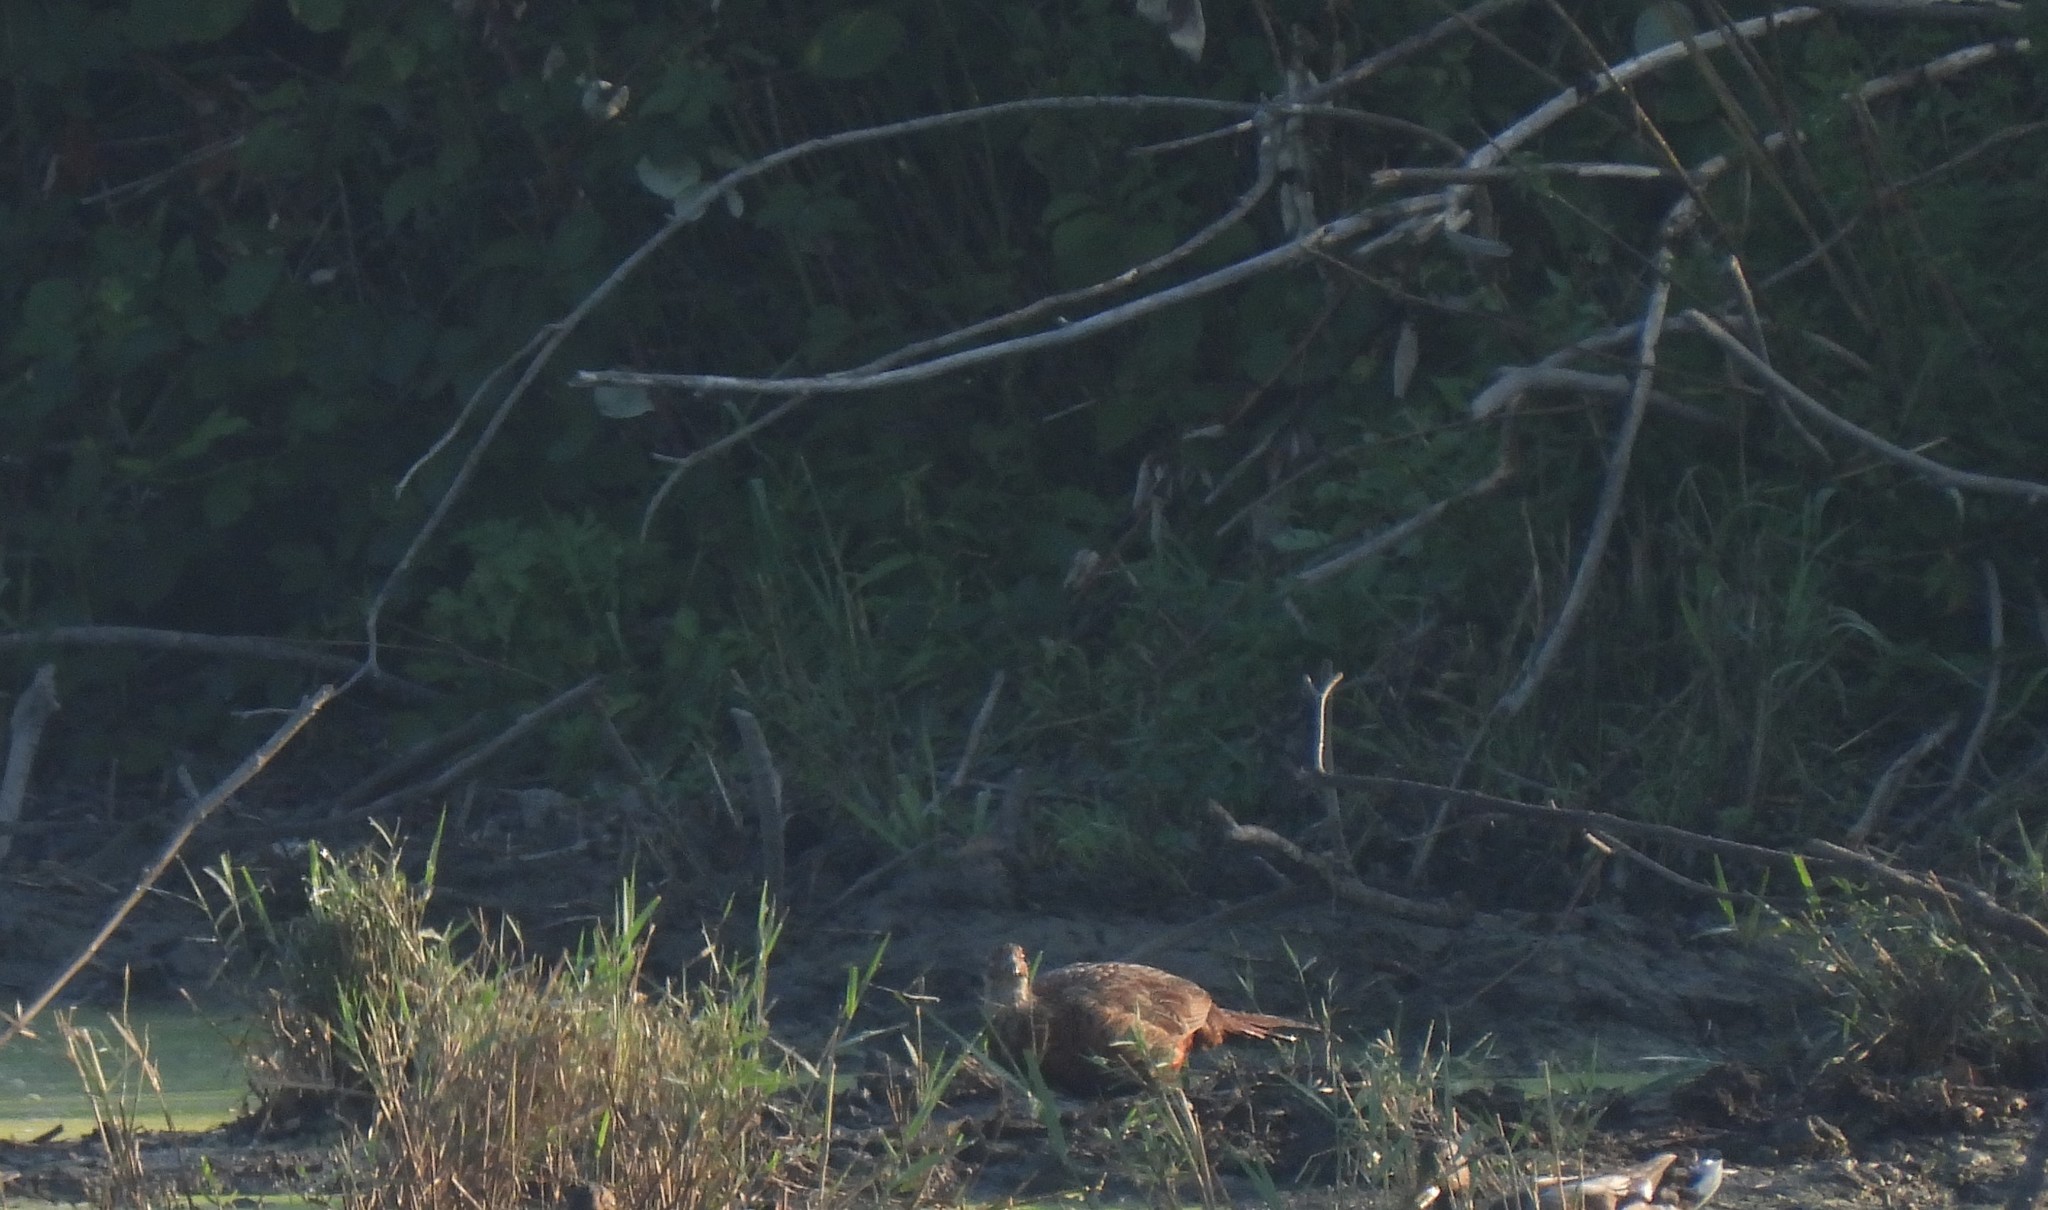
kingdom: Animalia
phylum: Chordata
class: Aves
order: Galliformes
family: Phasianidae
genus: Phasianus
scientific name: Phasianus colchicus
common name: Common pheasant
